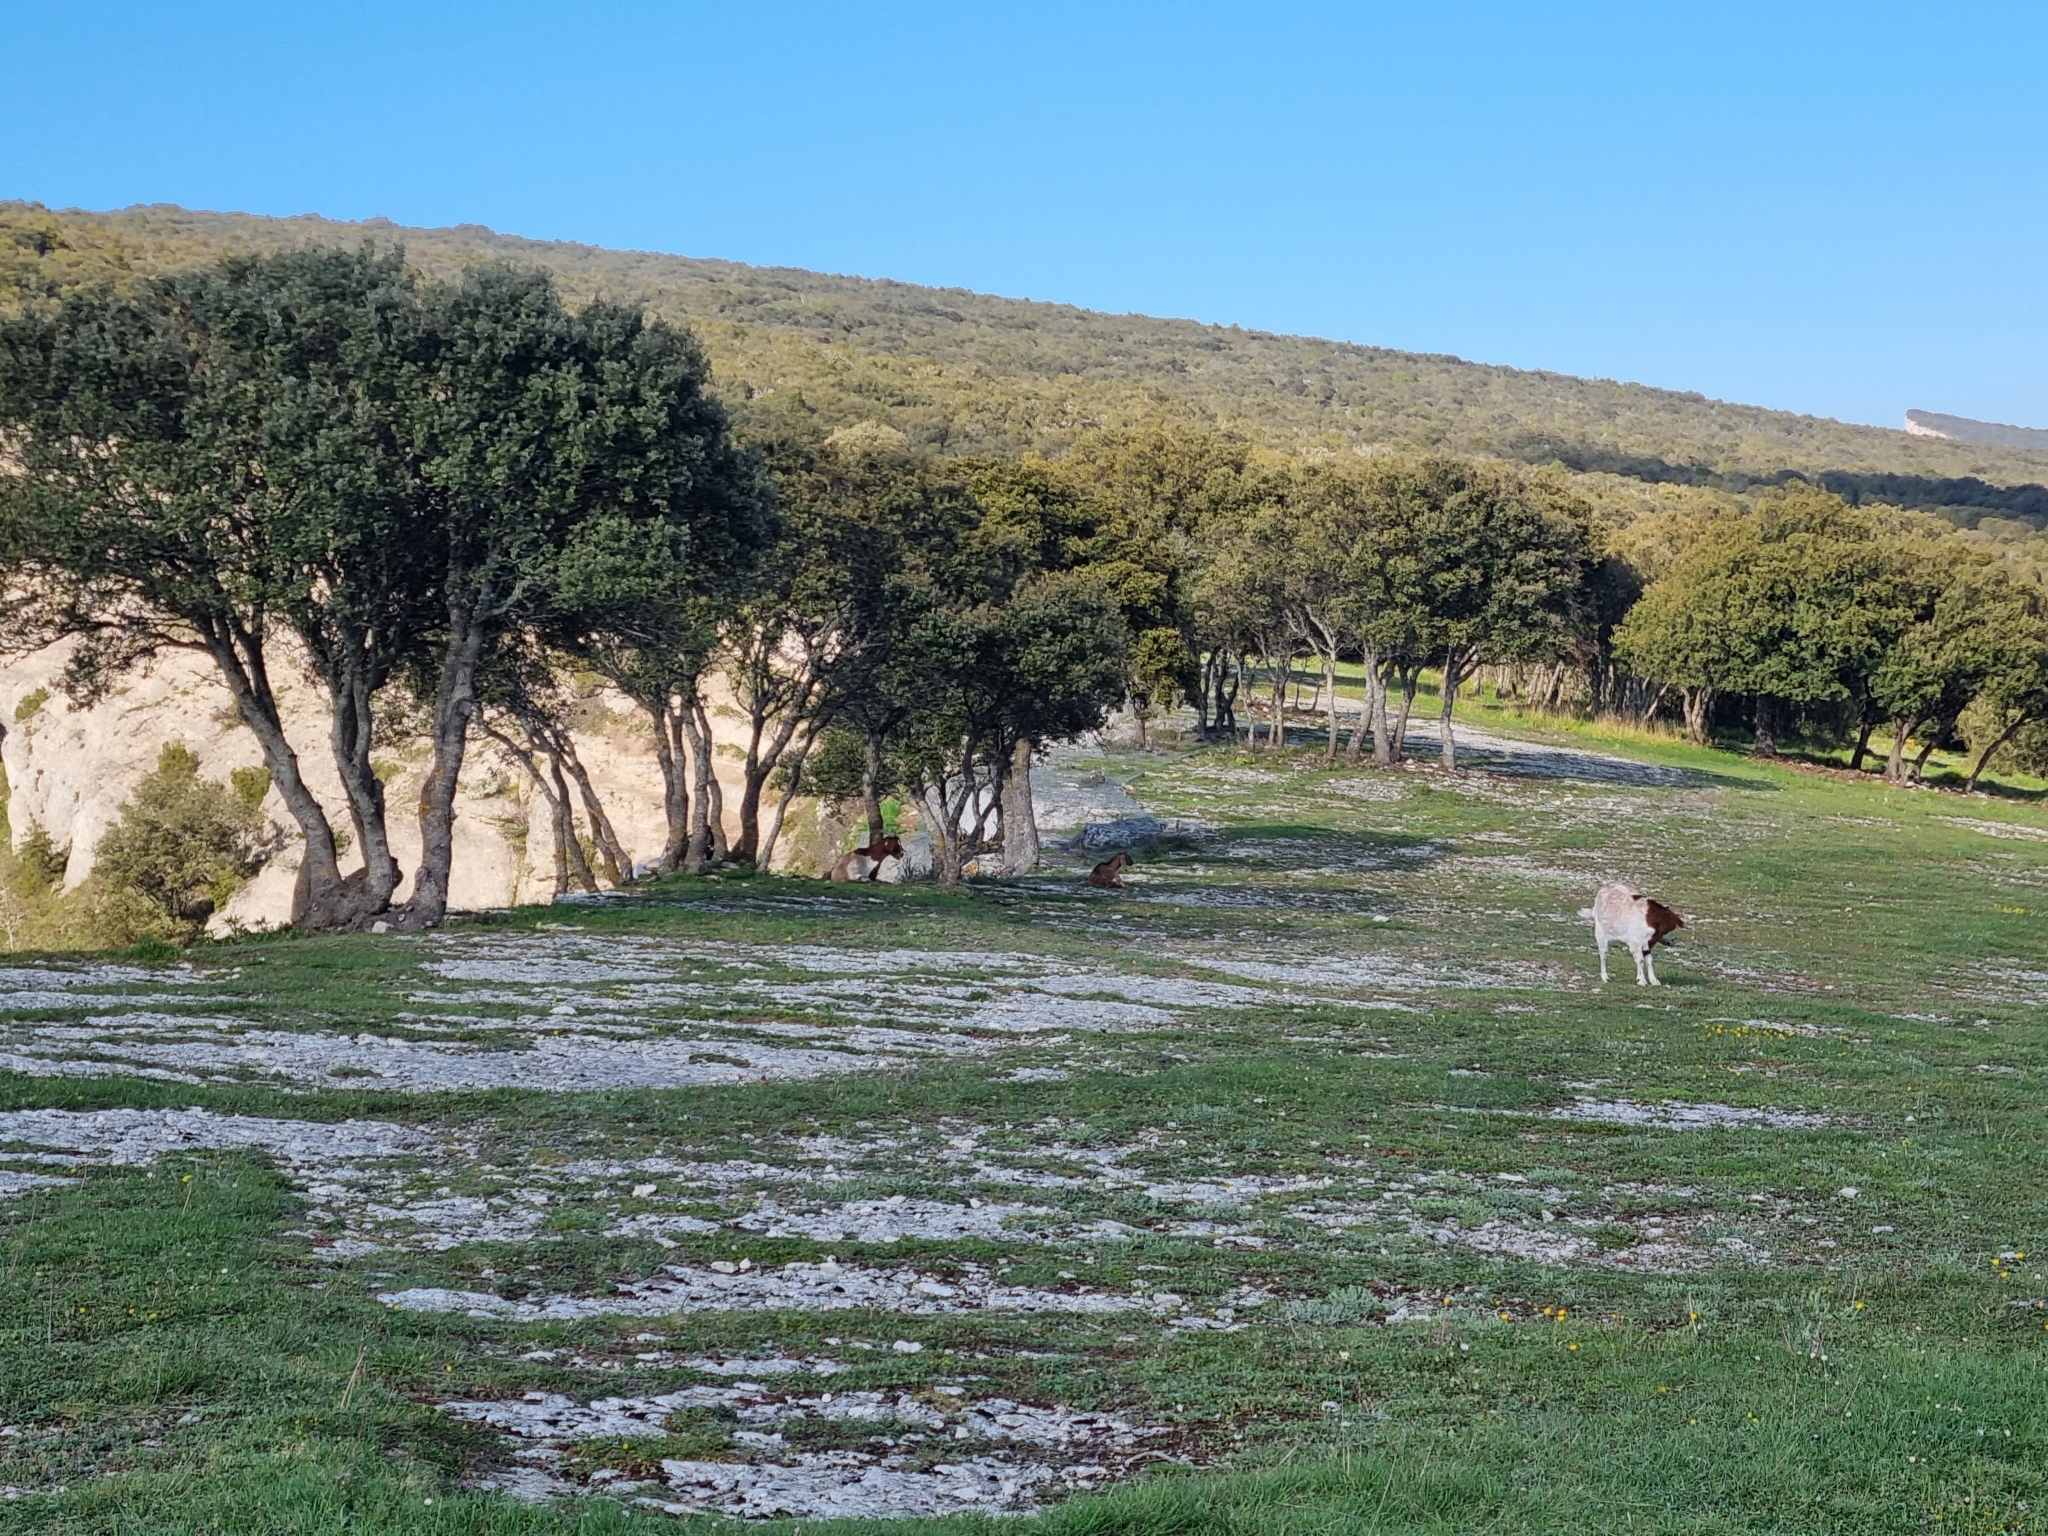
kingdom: Animalia
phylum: Chordata
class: Mammalia
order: Artiodactyla
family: Bovidae
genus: Capra
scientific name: Capra hircus
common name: Domestic goat
